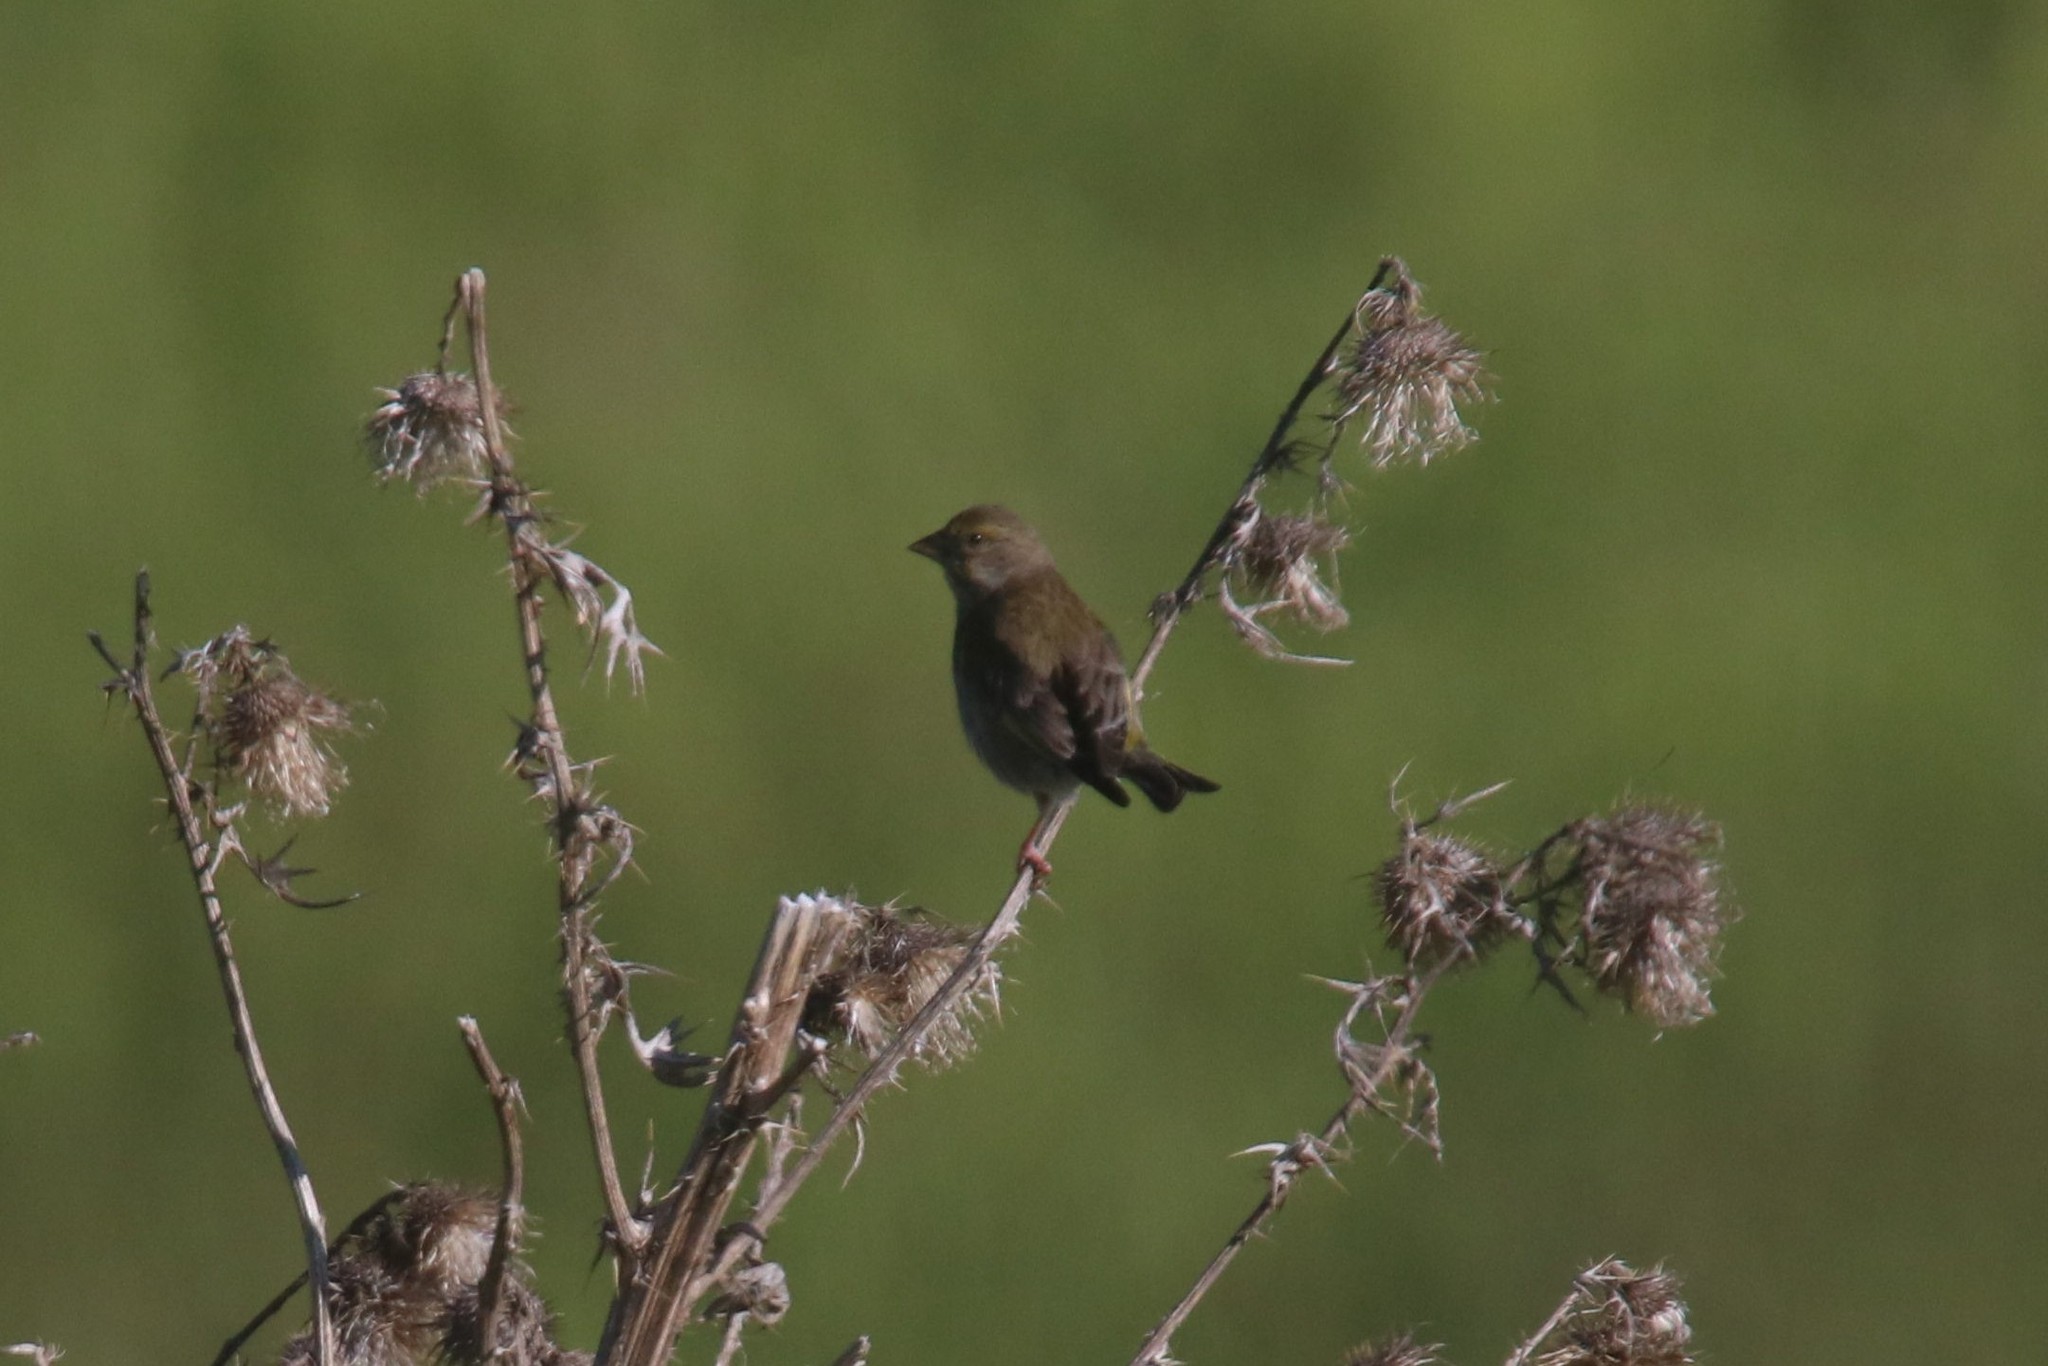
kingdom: Plantae
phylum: Tracheophyta
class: Liliopsida
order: Poales
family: Poaceae
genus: Chloris
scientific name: Chloris chloris
